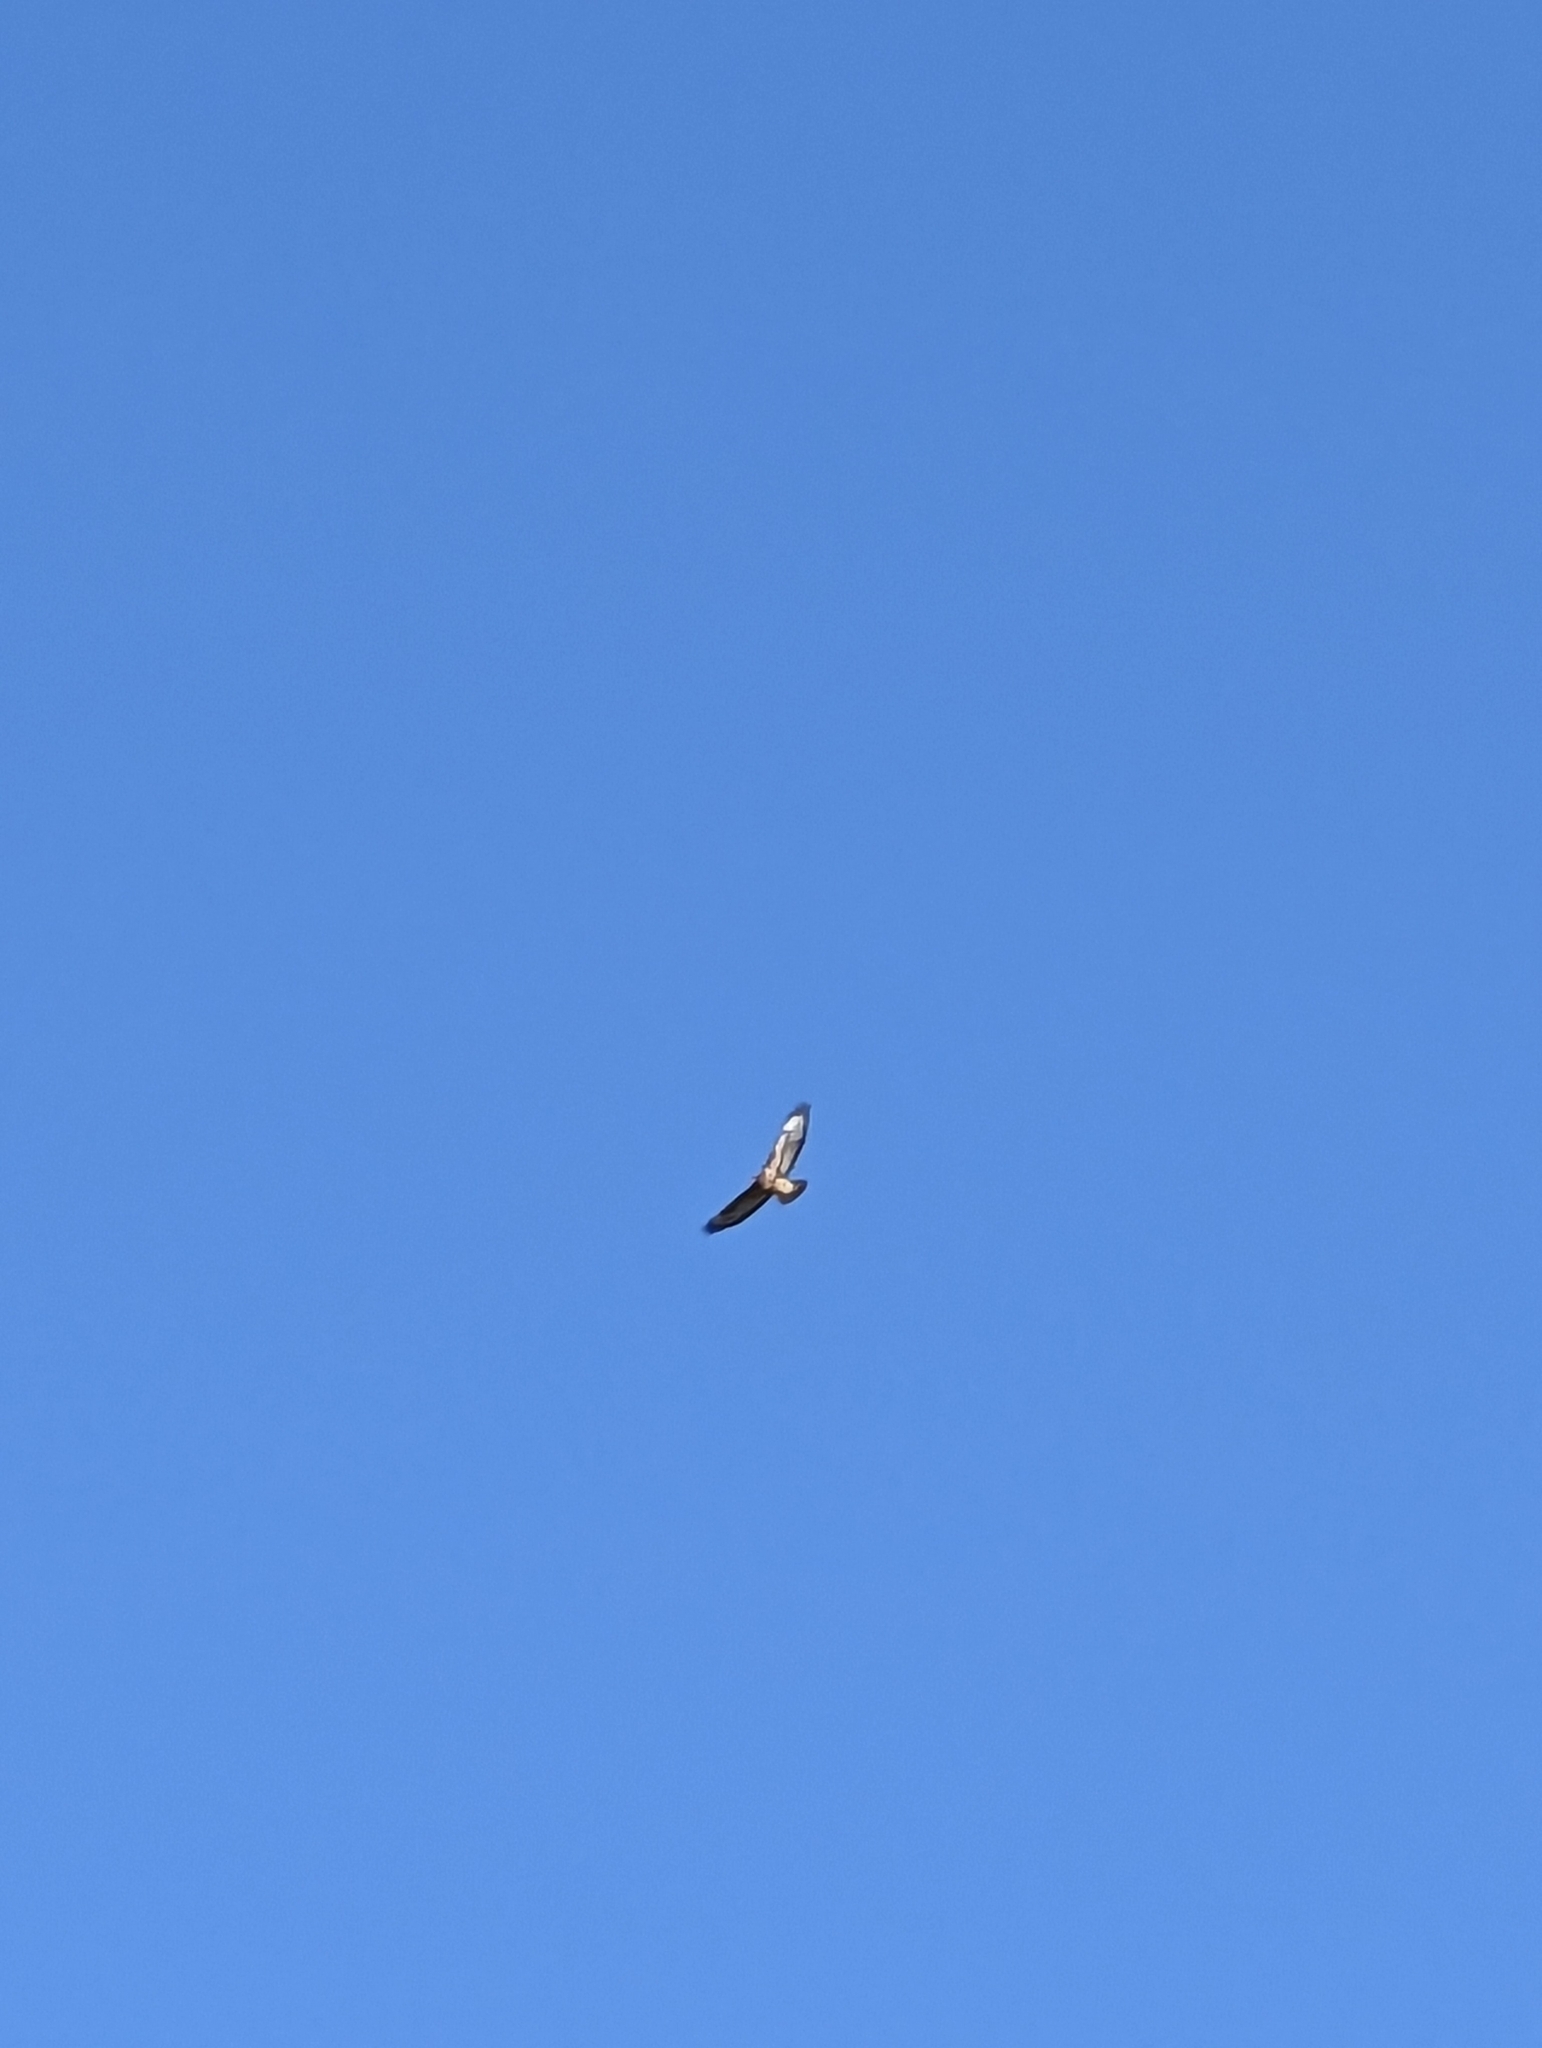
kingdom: Animalia
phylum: Chordata
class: Aves
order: Accipitriformes
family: Accipitridae
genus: Buteo
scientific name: Buteo jamaicensis
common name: Red-tailed hawk
